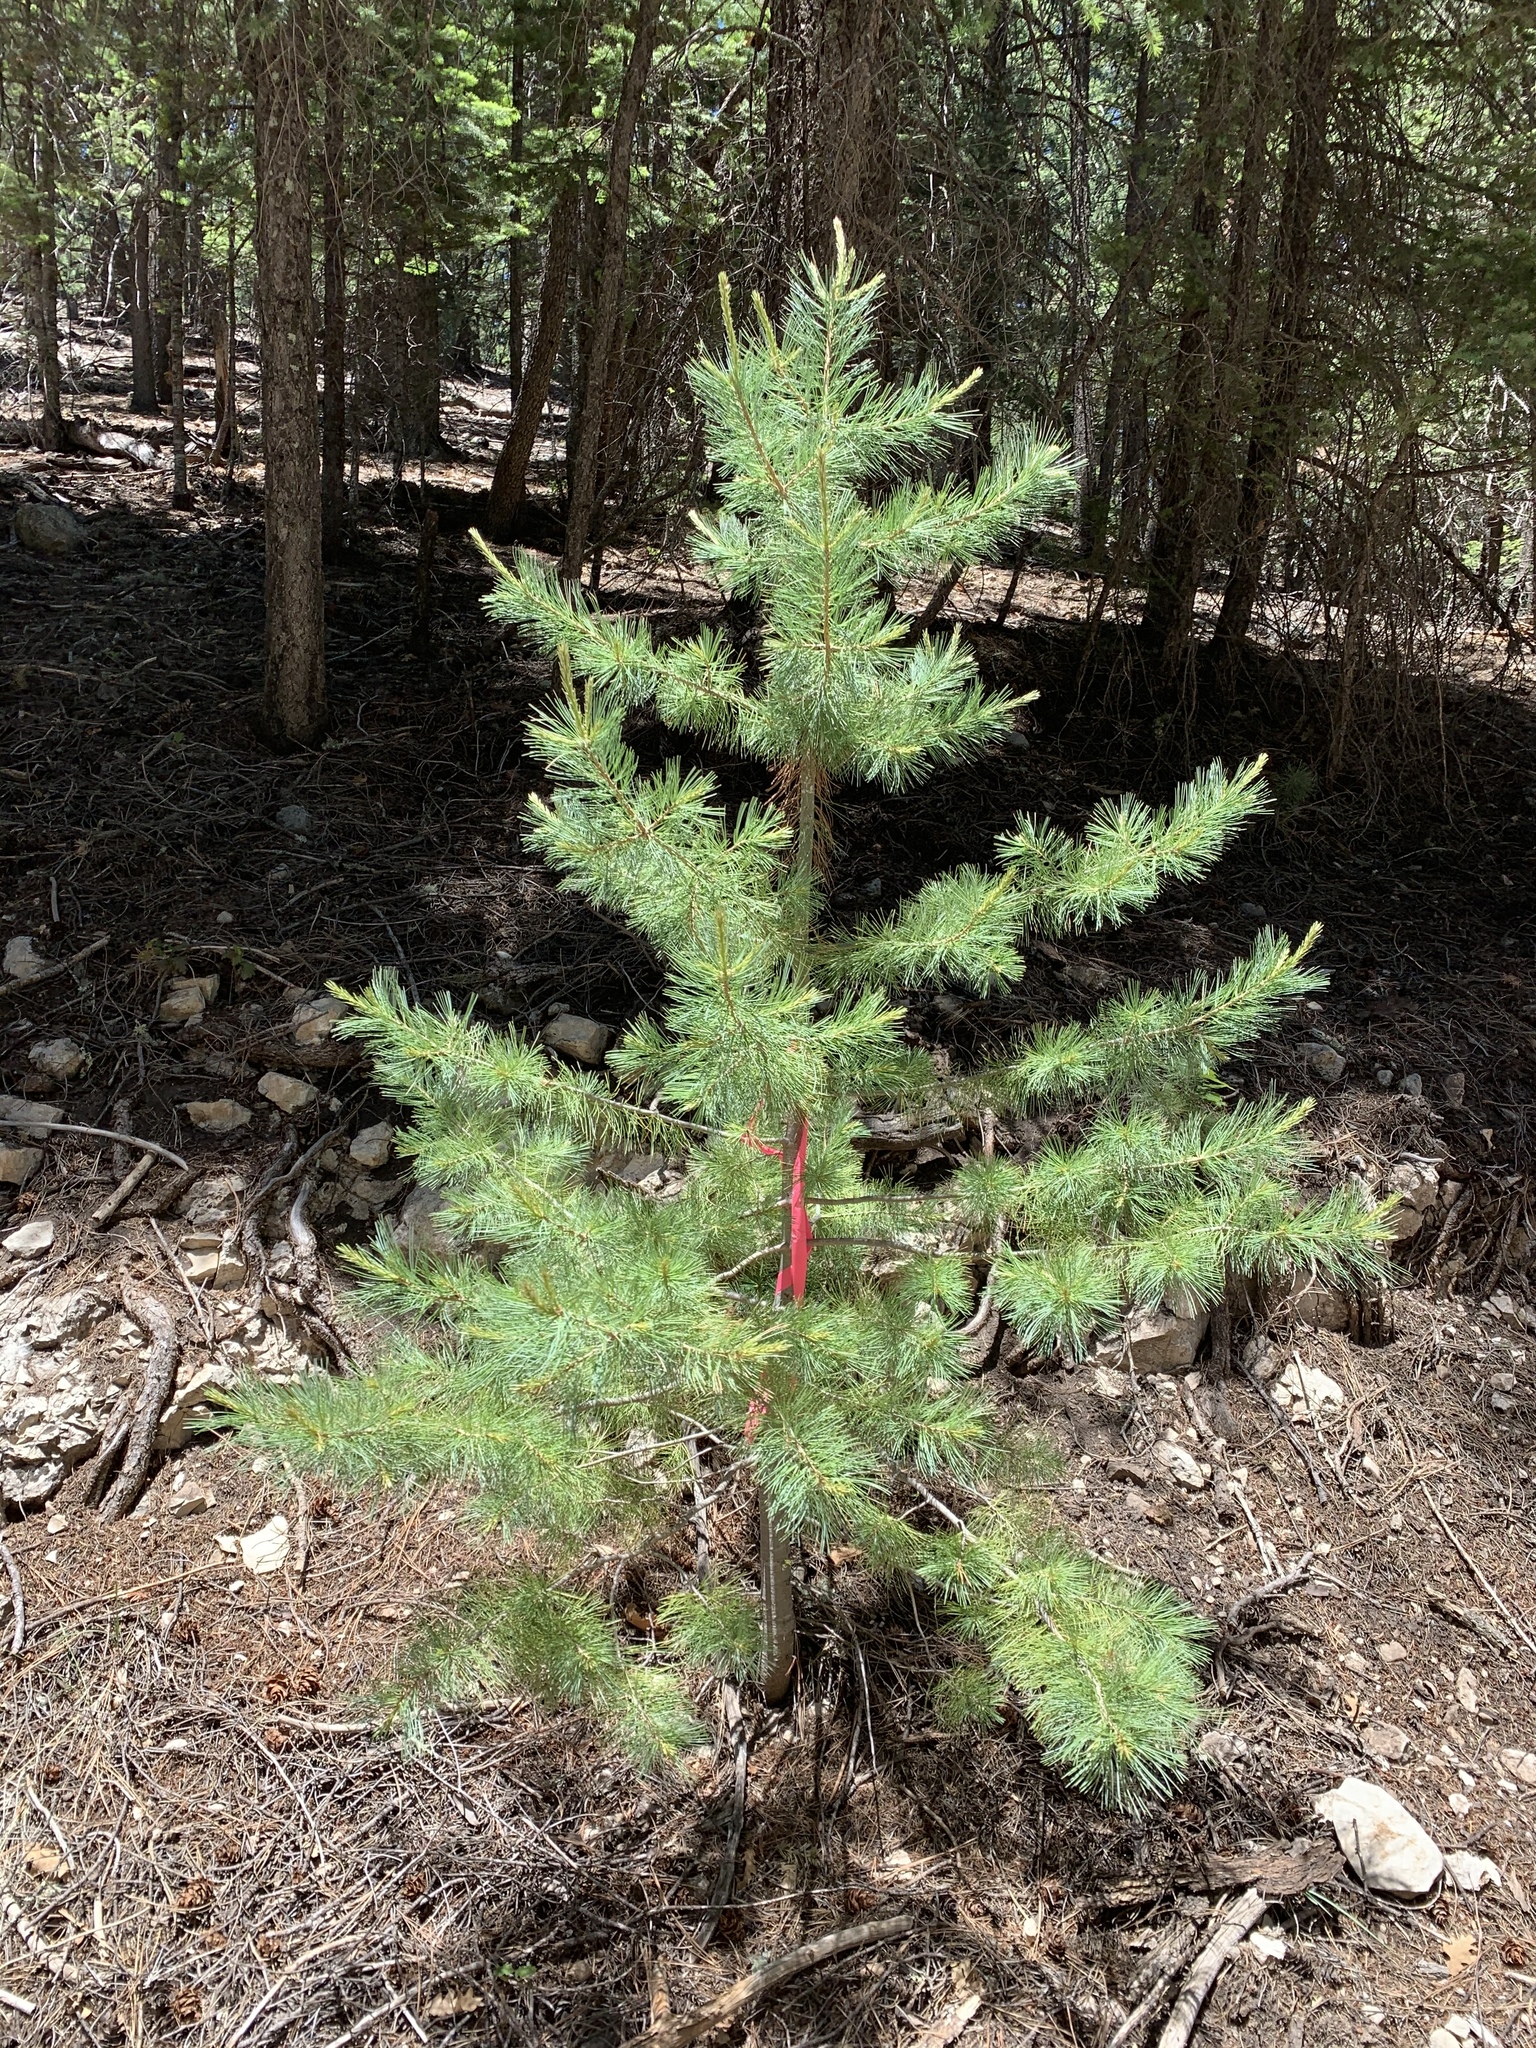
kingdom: Plantae
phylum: Tracheophyta
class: Pinopsida
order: Pinales
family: Pinaceae
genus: Pinus
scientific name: Pinus strobiformis
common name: Southwestern white pine
